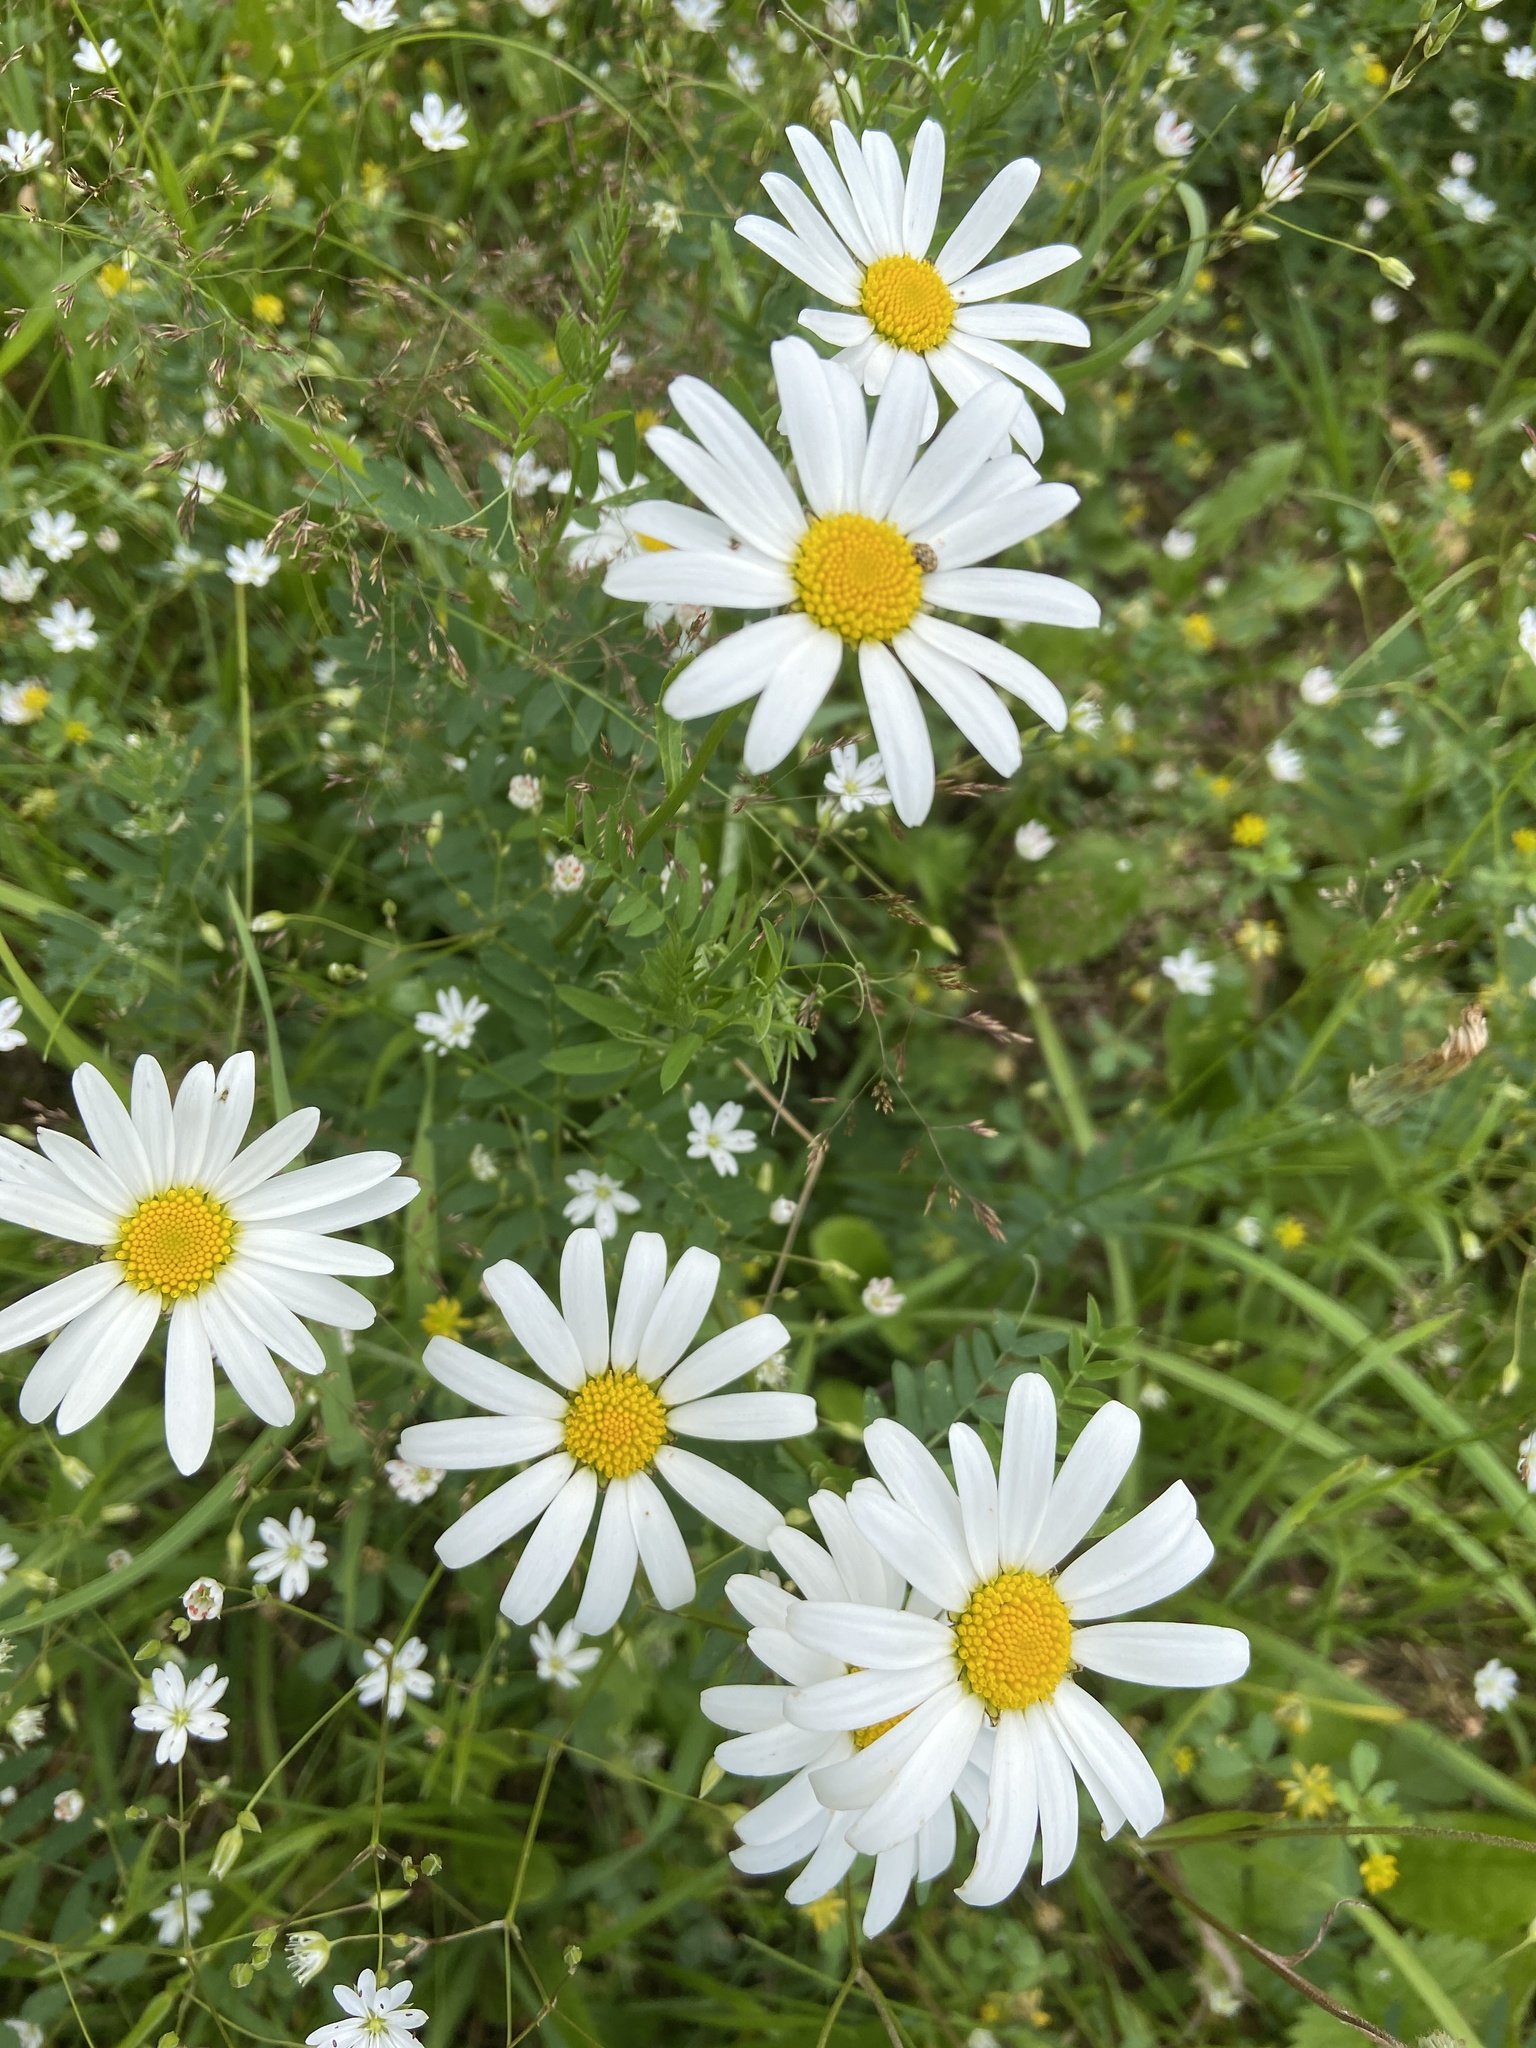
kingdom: Plantae
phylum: Tracheophyta
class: Magnoliopsida
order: Asterales
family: Asteraceae
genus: Tripleurospermum
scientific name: Tripleurospermum inodorum
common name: Scentless mayweed
